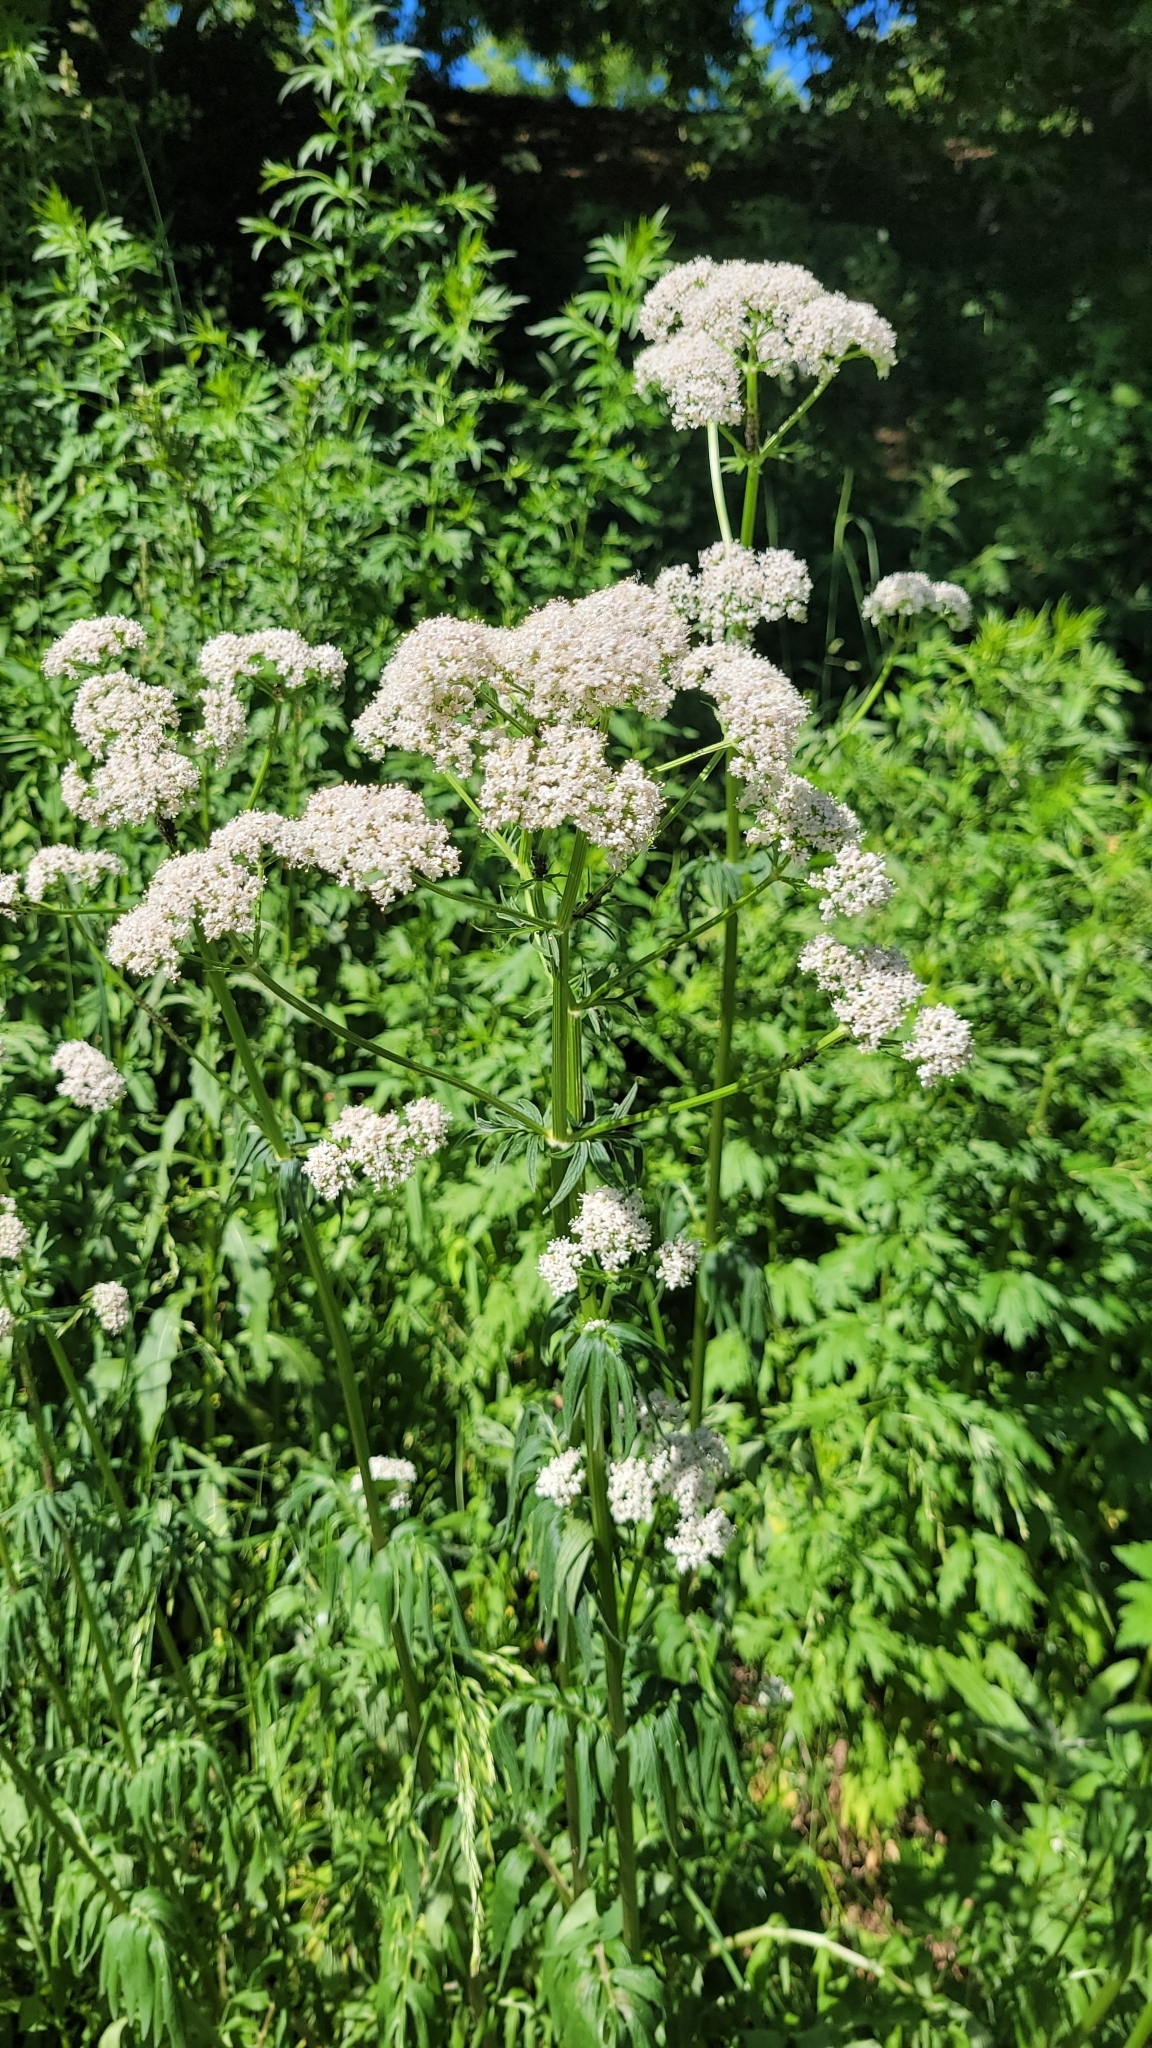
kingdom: Plantae
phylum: Tracheophyta
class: Magnoliopsida
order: Dipsacales
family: Caprifoliaceae
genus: Valeriana
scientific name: Valeriana officinalis
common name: Common valerian
